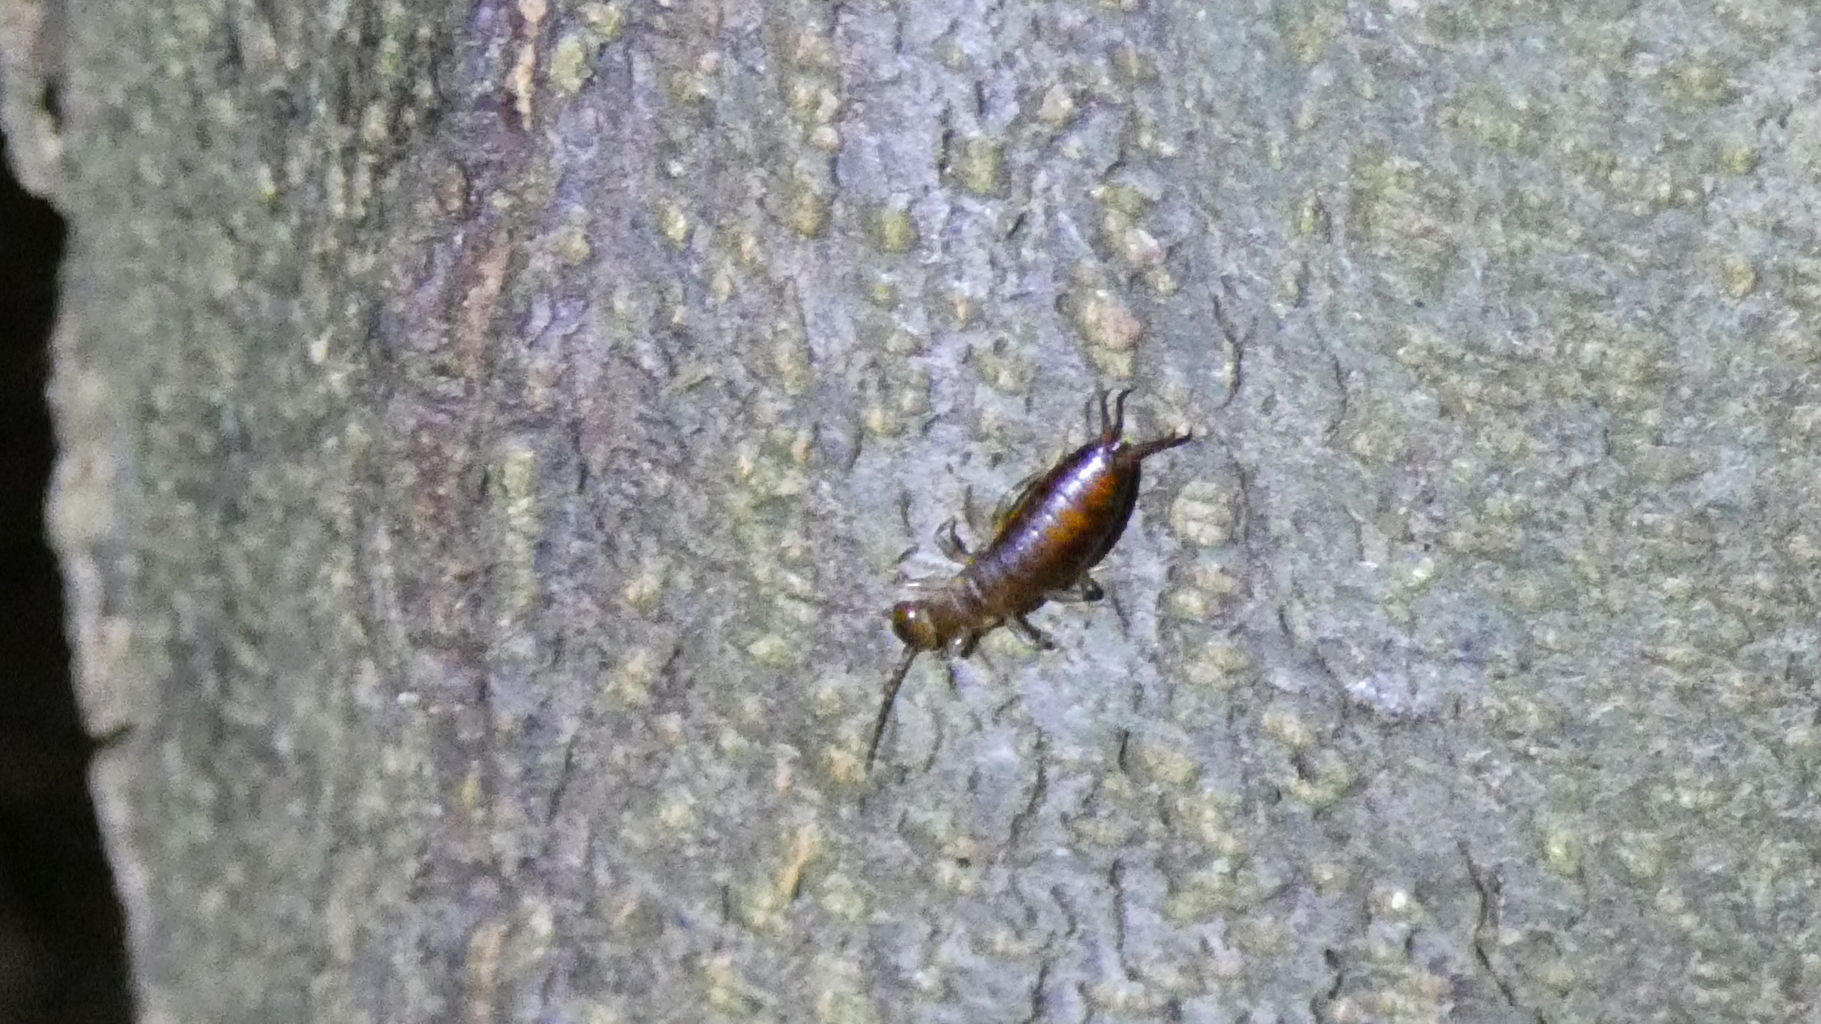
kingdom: Animalia
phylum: Arthropoda
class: Insecta
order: Dermaptera
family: Forficulidae
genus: Chelidurella
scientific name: Chelidurella acanthopygia
